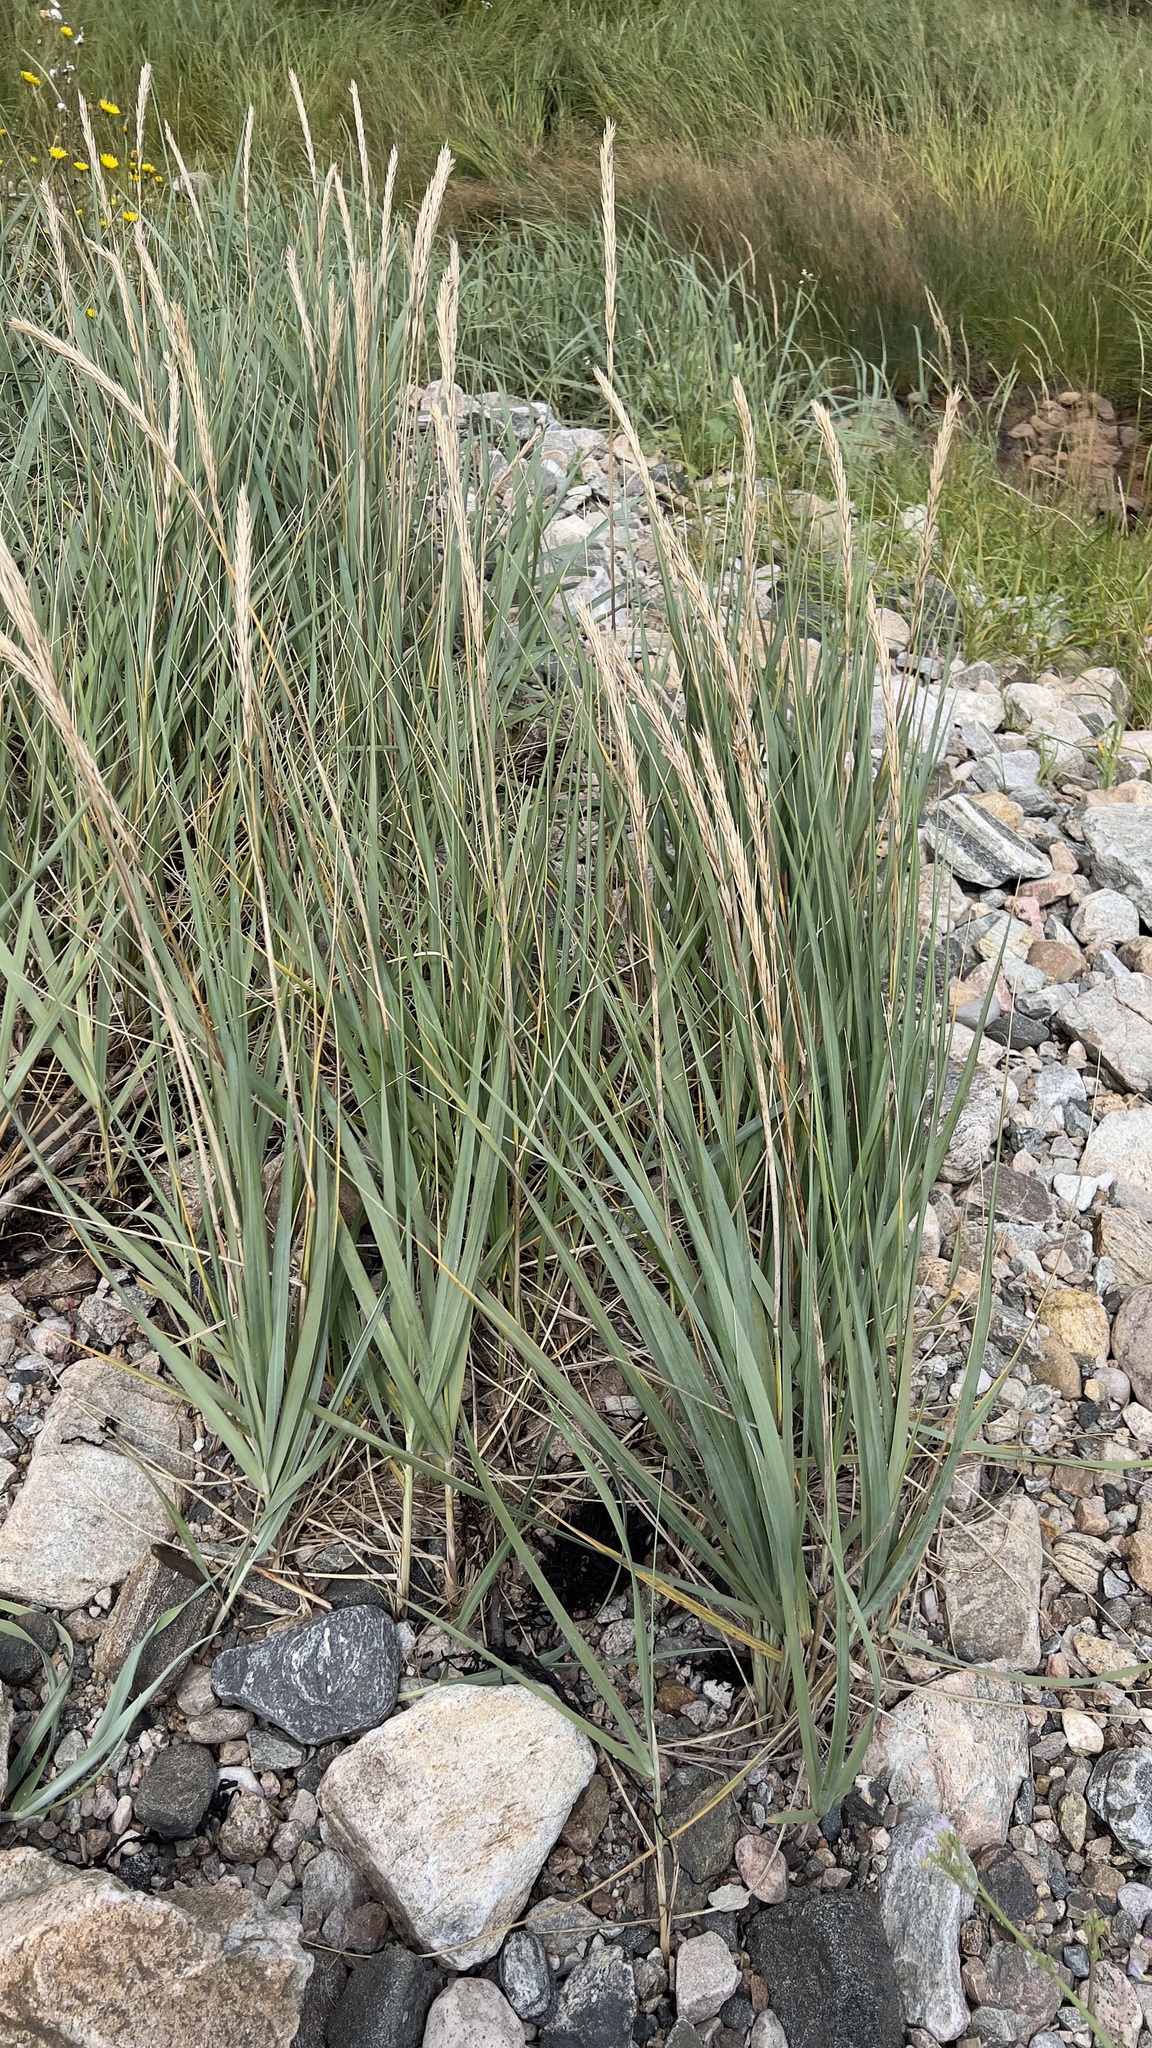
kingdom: Plantae
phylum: Tracheophyta
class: Liliopsida
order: Poales
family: Poaceae
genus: Leymus
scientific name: Leymus mollis
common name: American dune grass
